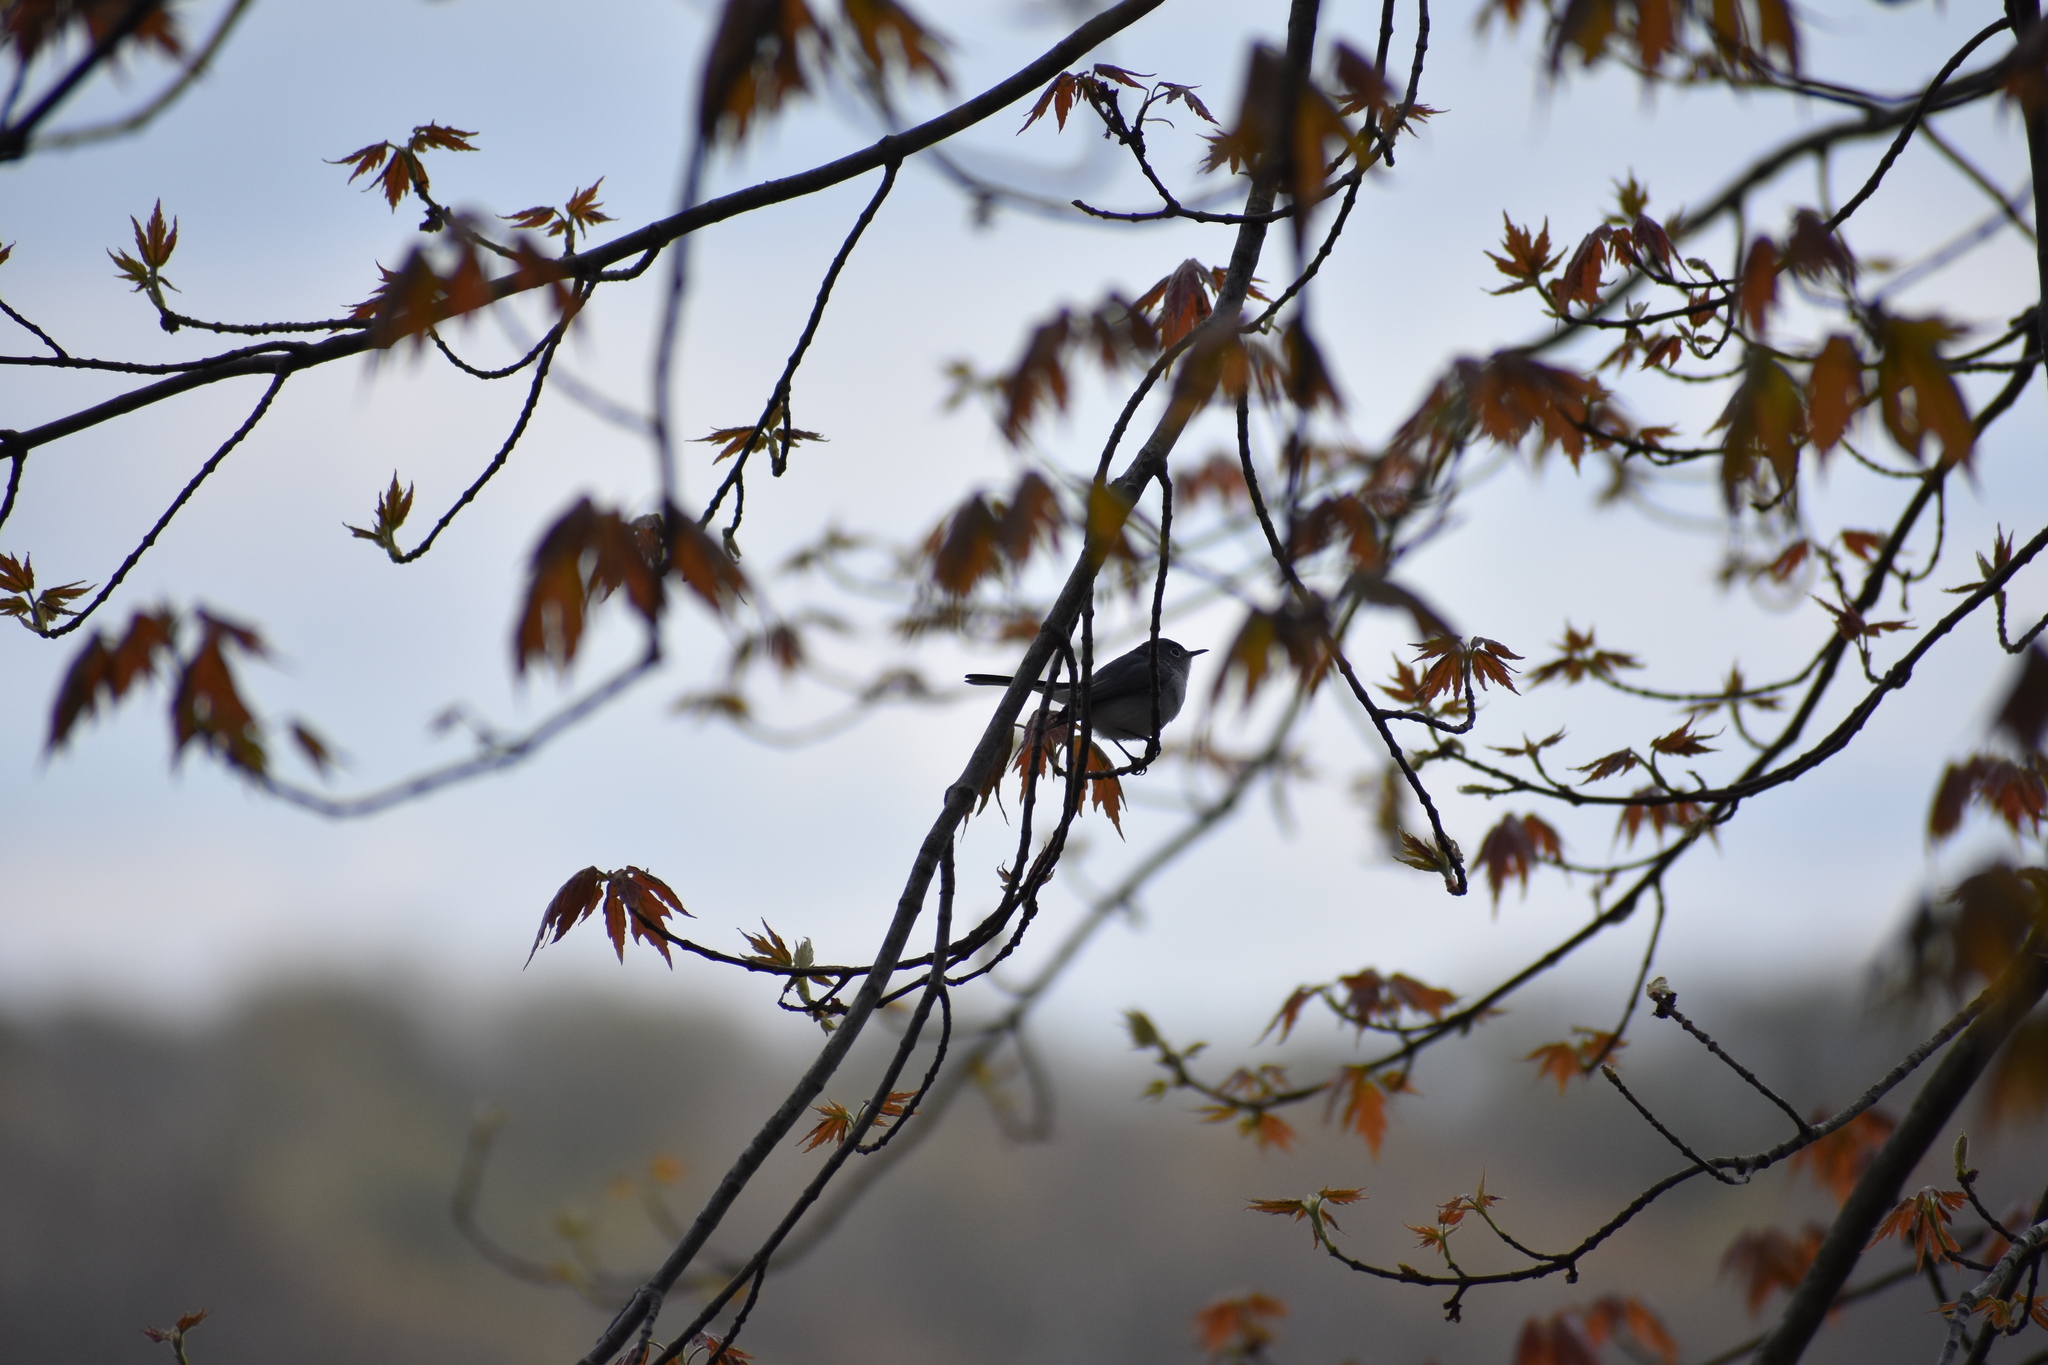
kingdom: Animalia
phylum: Chordata
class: Aves
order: Passeriformes
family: Polioptilidae
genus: Polioptila
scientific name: Polioptila caerulea
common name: Blue-gray gnatcatcher
